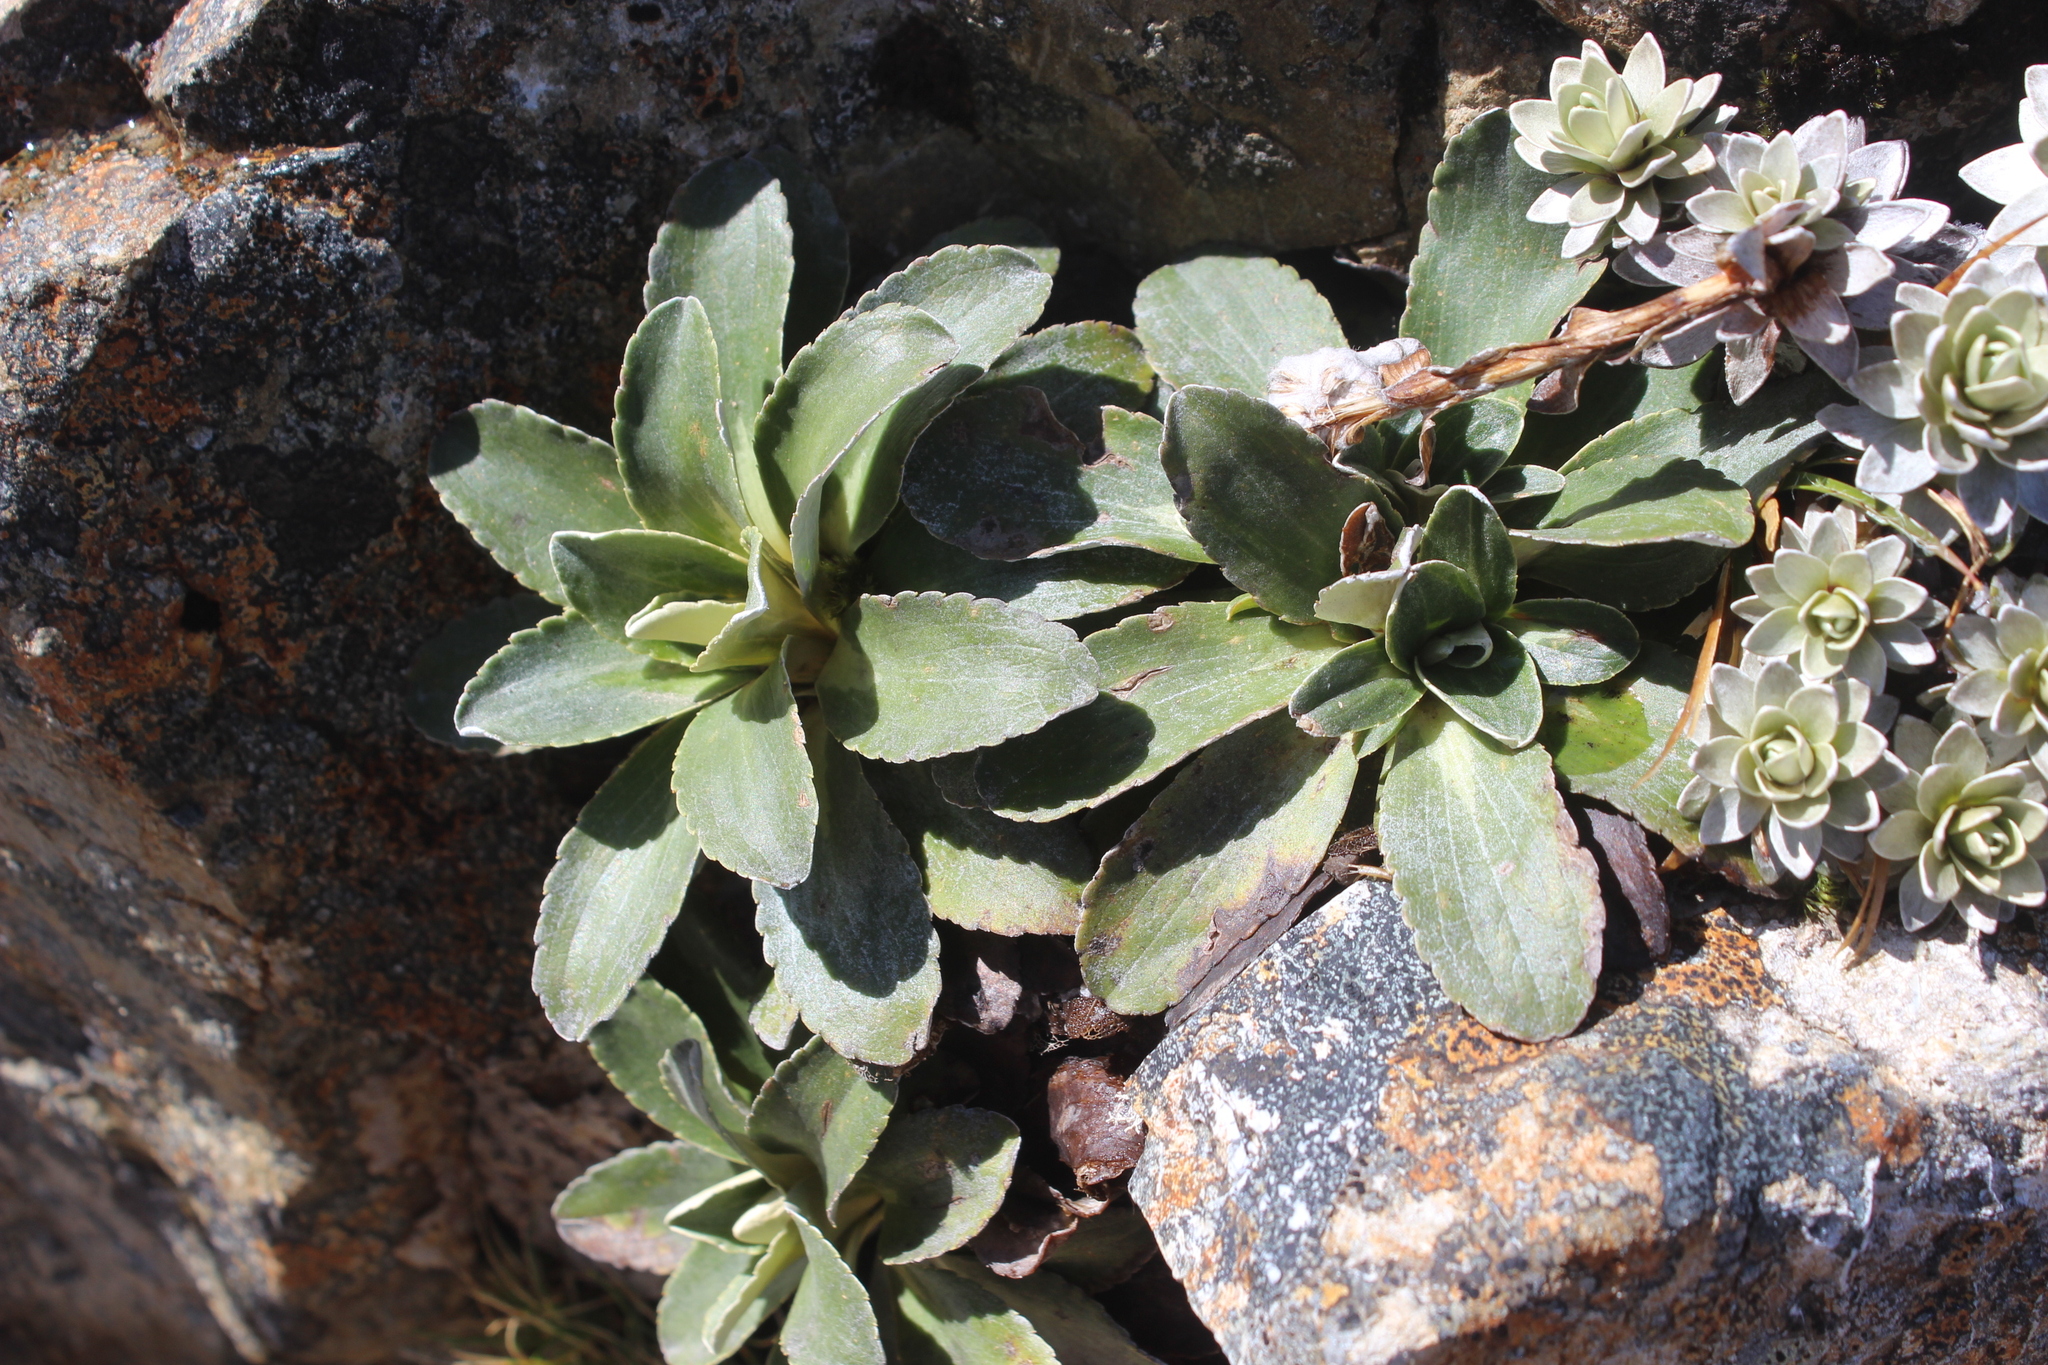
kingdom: Plantae
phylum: Tracheophyta
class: Magnoliopsida
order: Asterales
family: Asteraceae
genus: Celmisia
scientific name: Celmisia hieraciifolia
